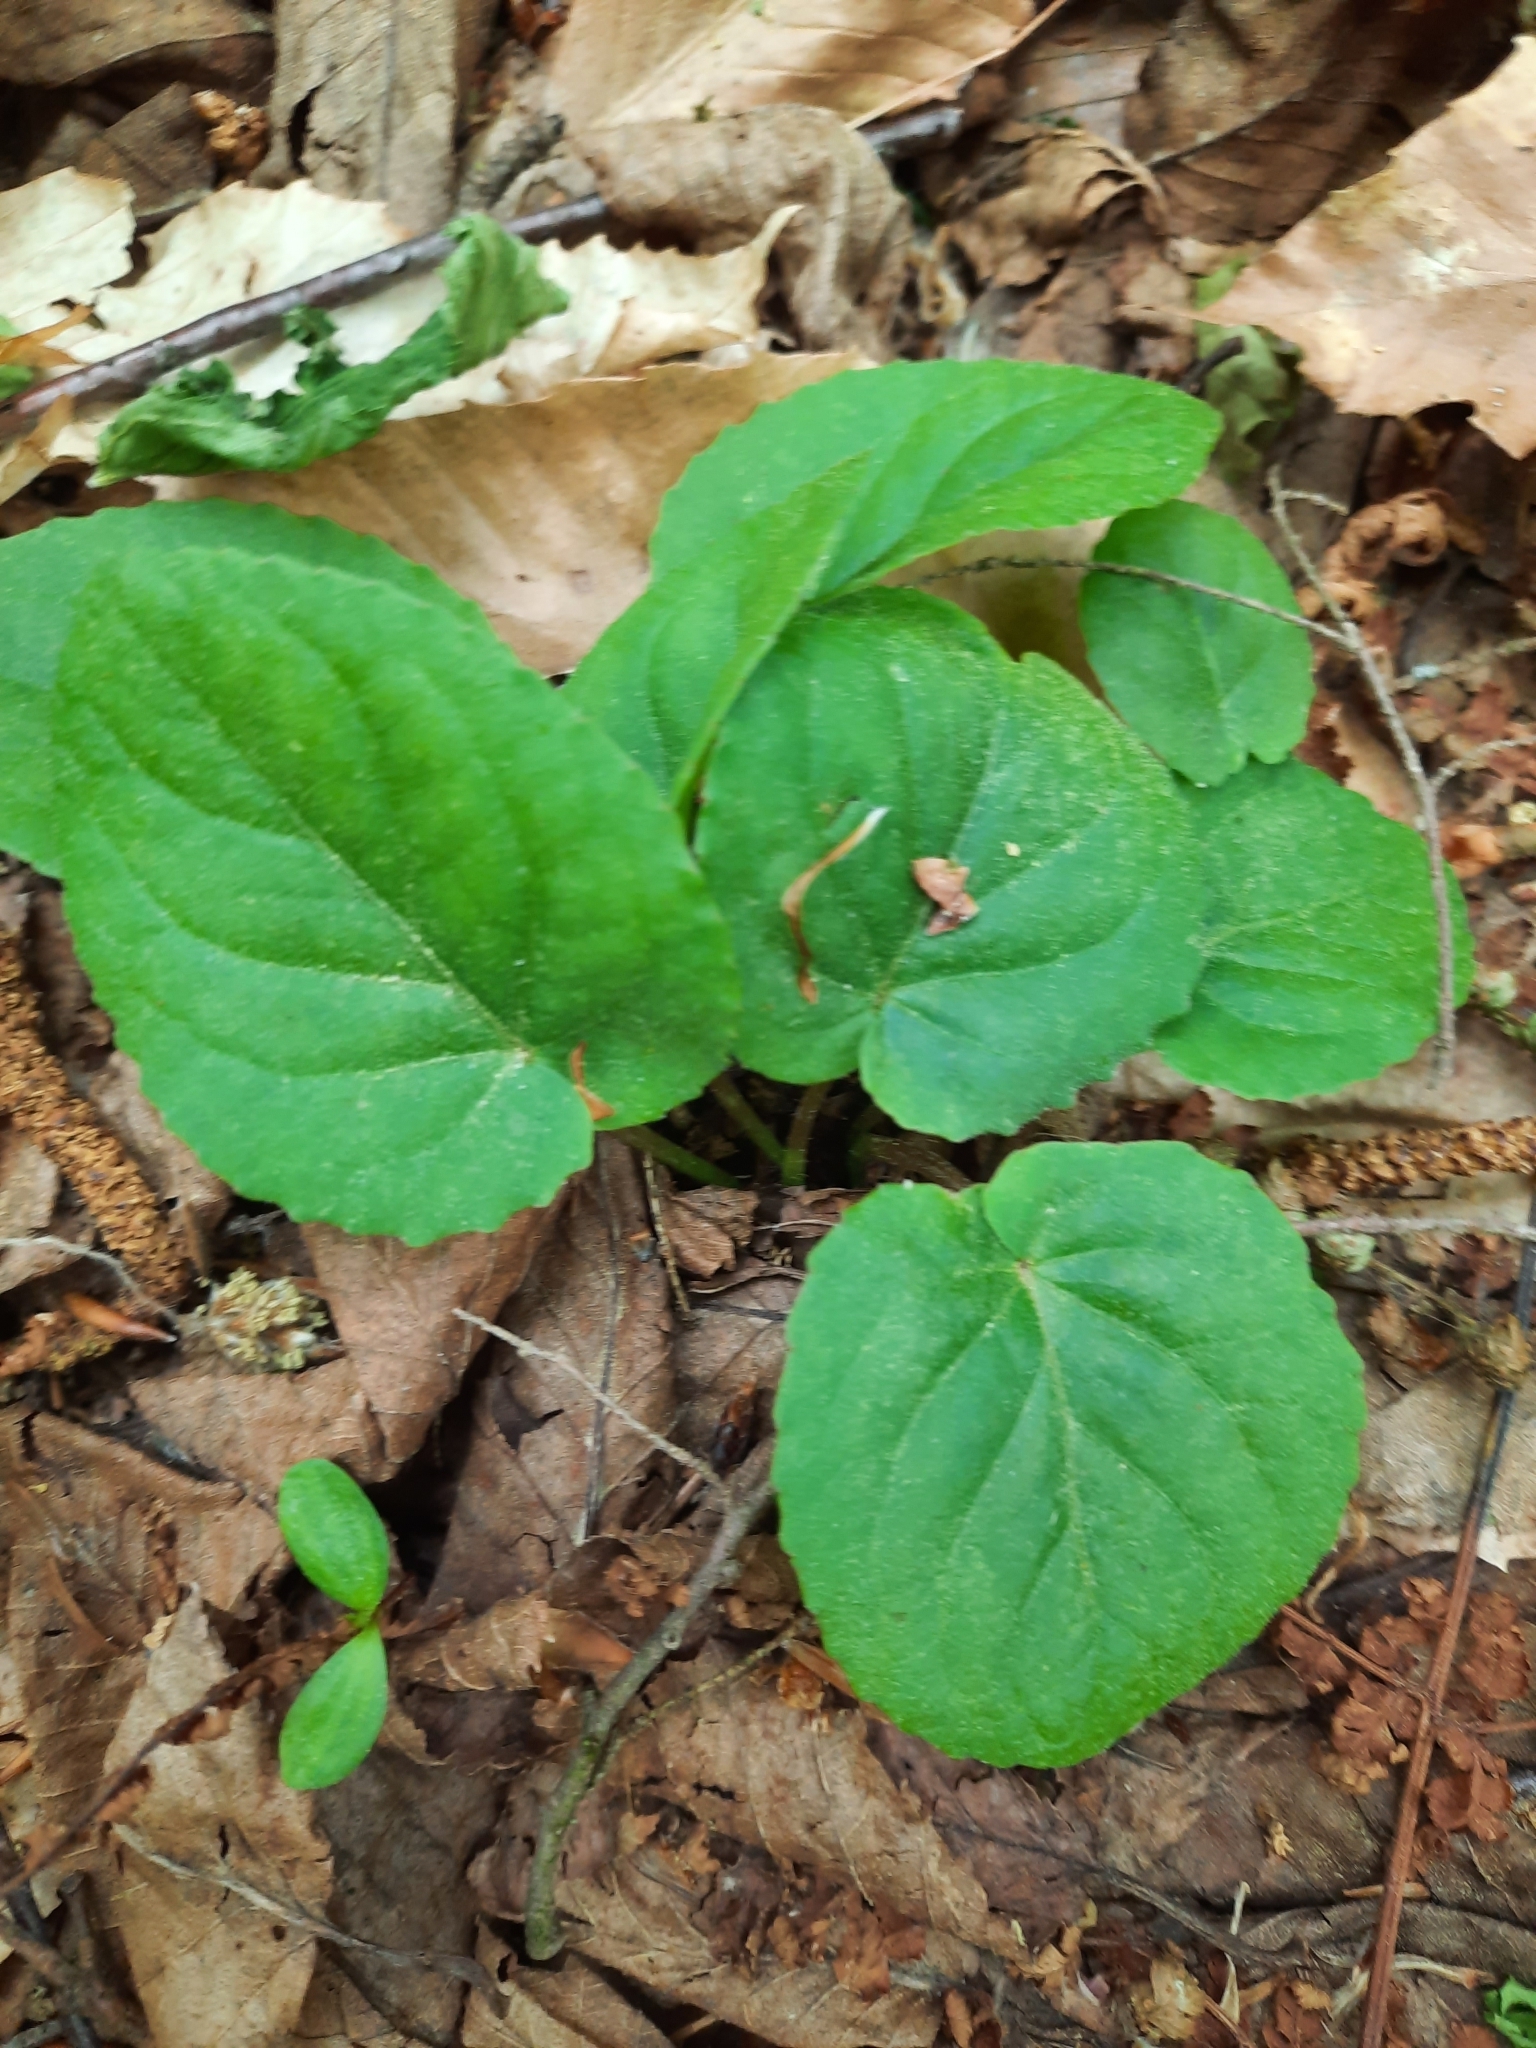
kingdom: Plantae
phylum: Tracheophyta
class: Magnoliopsida
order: Malpighiales
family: Violaceae
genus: Viola
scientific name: Viola rotundifolia
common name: Early yellow violet
